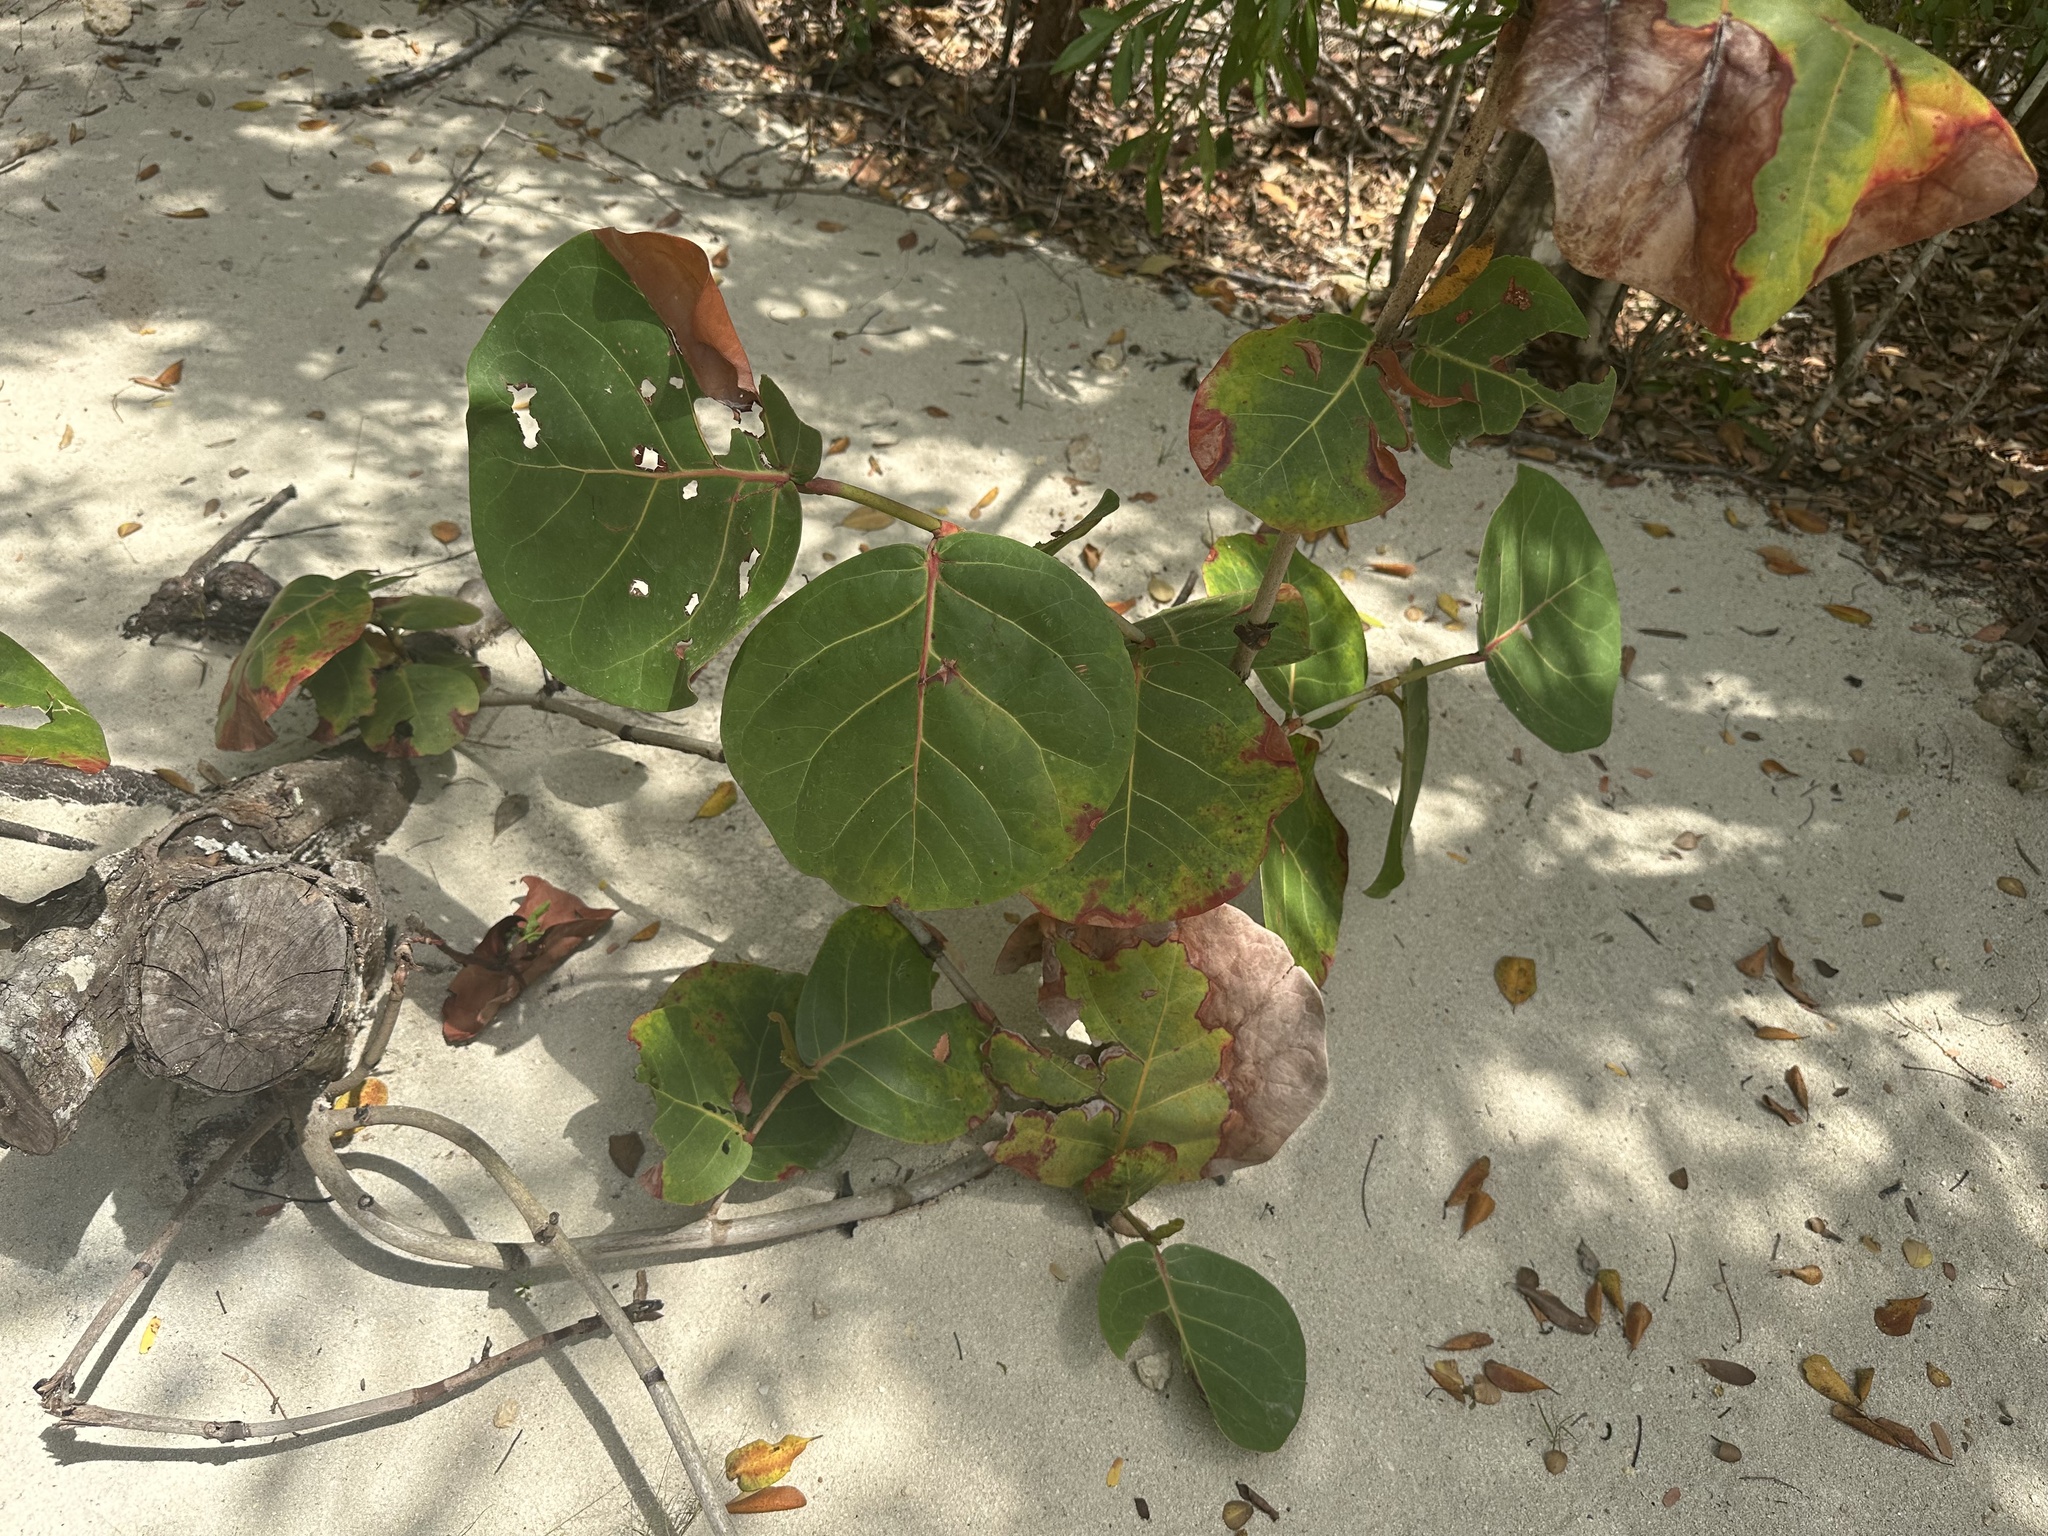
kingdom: Plantae
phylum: Tracheophyta
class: Magnoliopsida
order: Caryophyllales
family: Polygonaceae
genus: Coccoloba
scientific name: Coccoloba uvifera
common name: Seagrape
